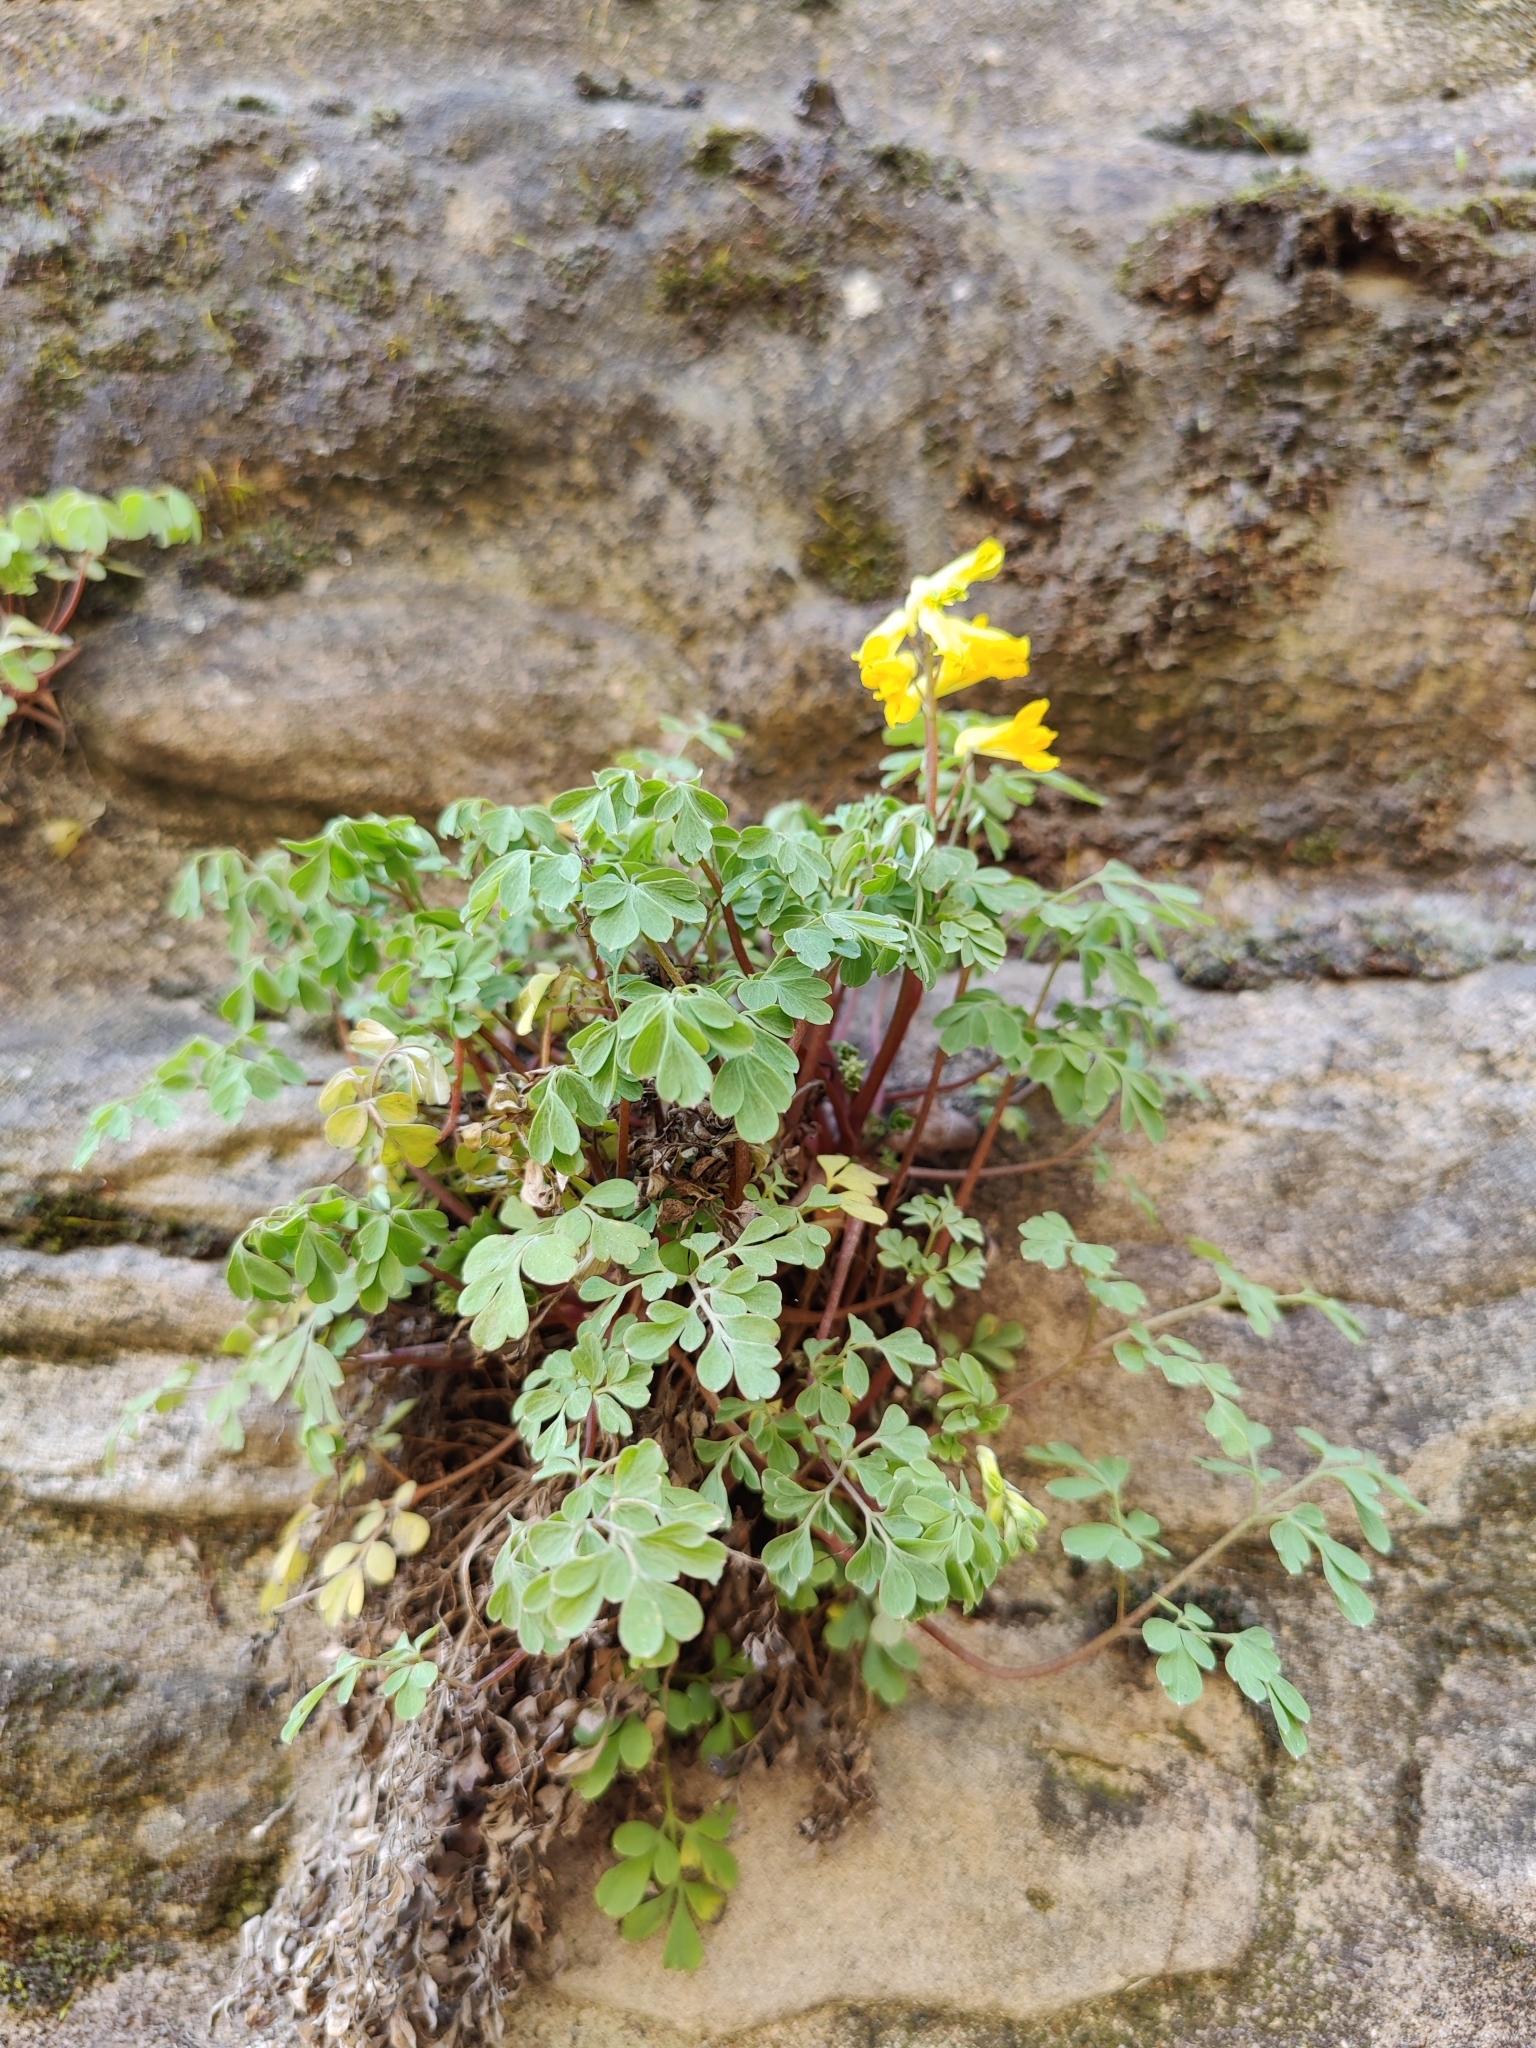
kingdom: Plantae
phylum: Tracheophyta
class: Magnoliopsida
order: Ranunculales
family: Papaveraceae
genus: Pseudofumaria
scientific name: Pseudofumaria lutea
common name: Yellow corydalis
